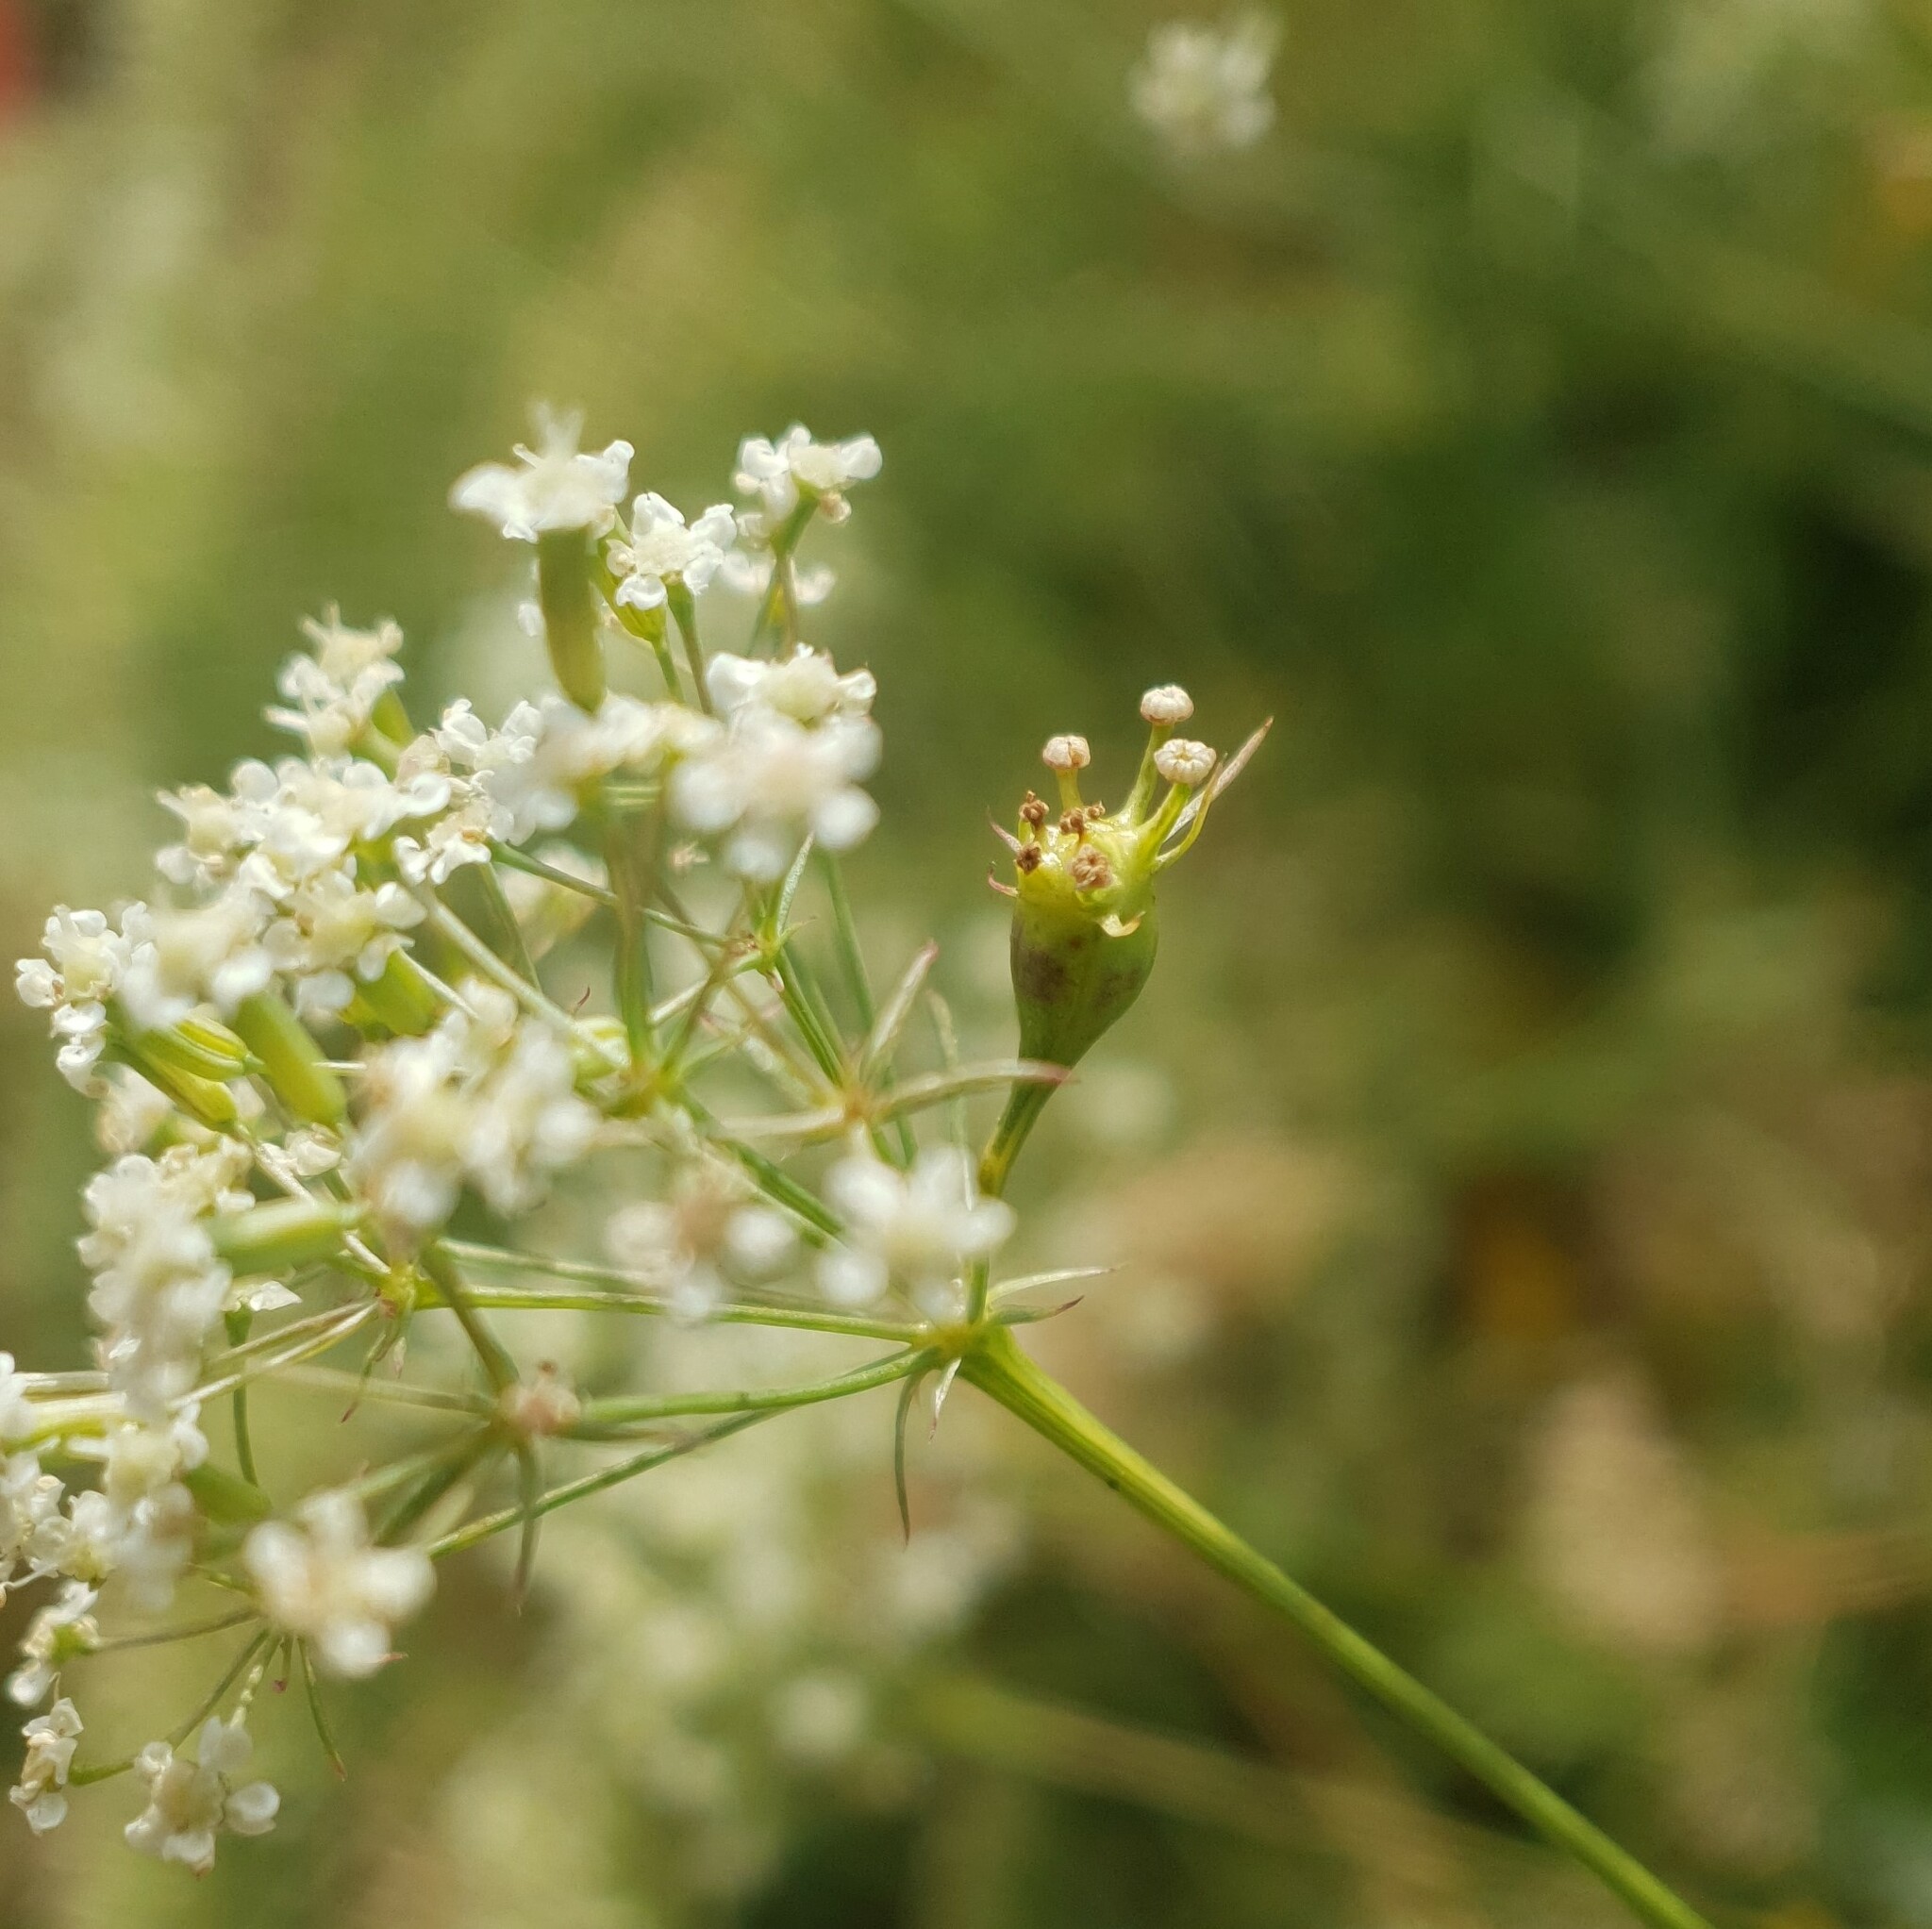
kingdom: Animalia
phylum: Arthropoda
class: Insecta
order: Diptera
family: Cecidomyiidae
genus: Lasioptera
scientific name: Lasioptera carophila
